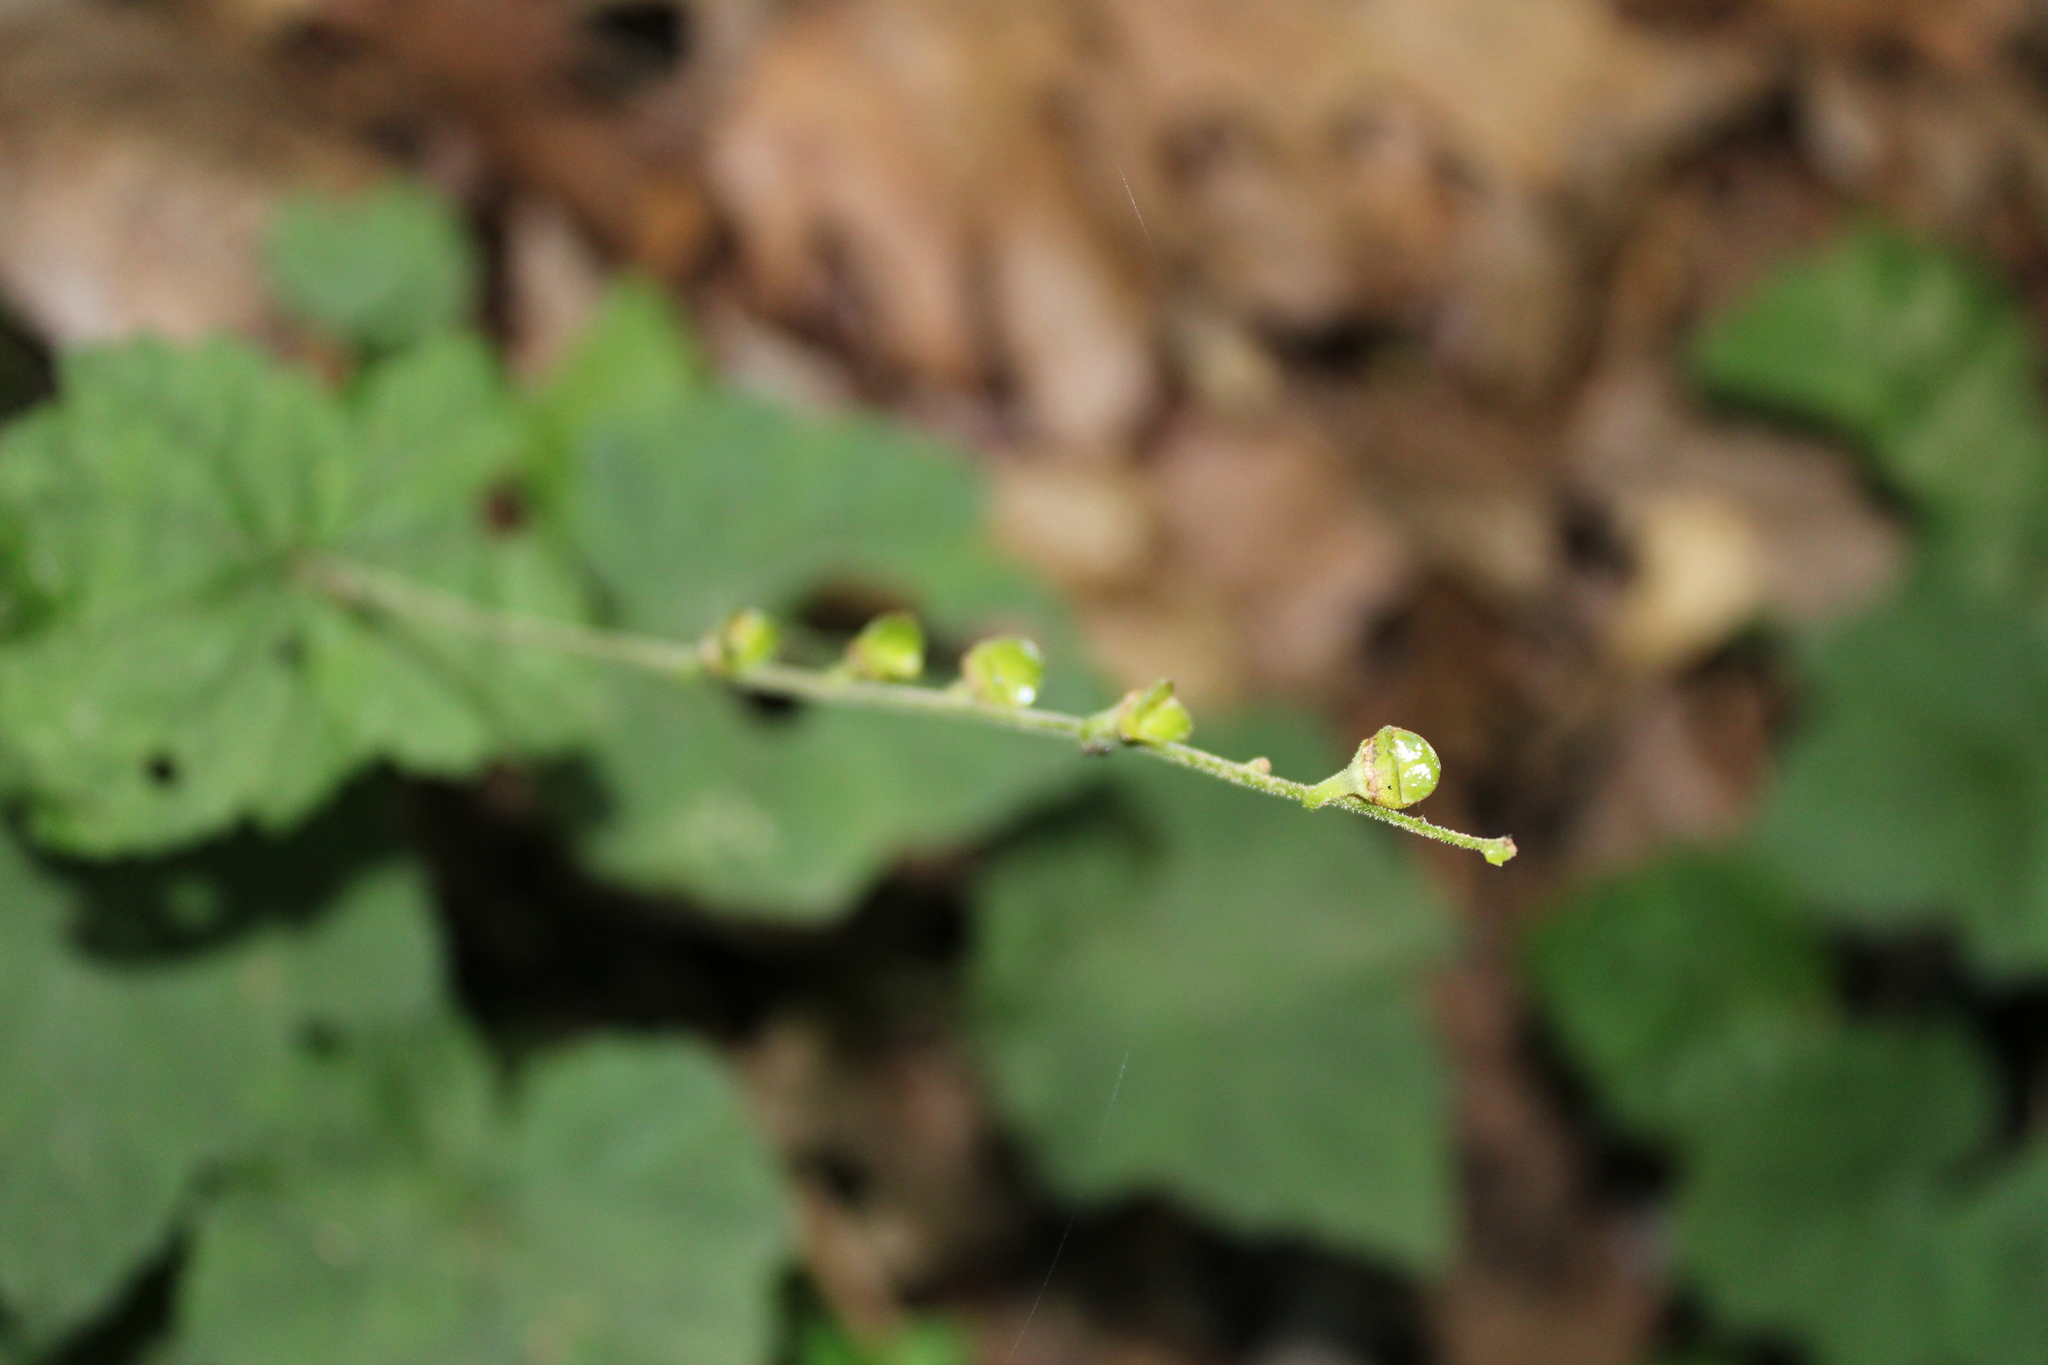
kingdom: Plantae
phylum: Tracheophyta
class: Magnoliopsida
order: Saxifragales
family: Saxifragaceae
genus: Mitella
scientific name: Mitella diphylla
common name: Coolwort
